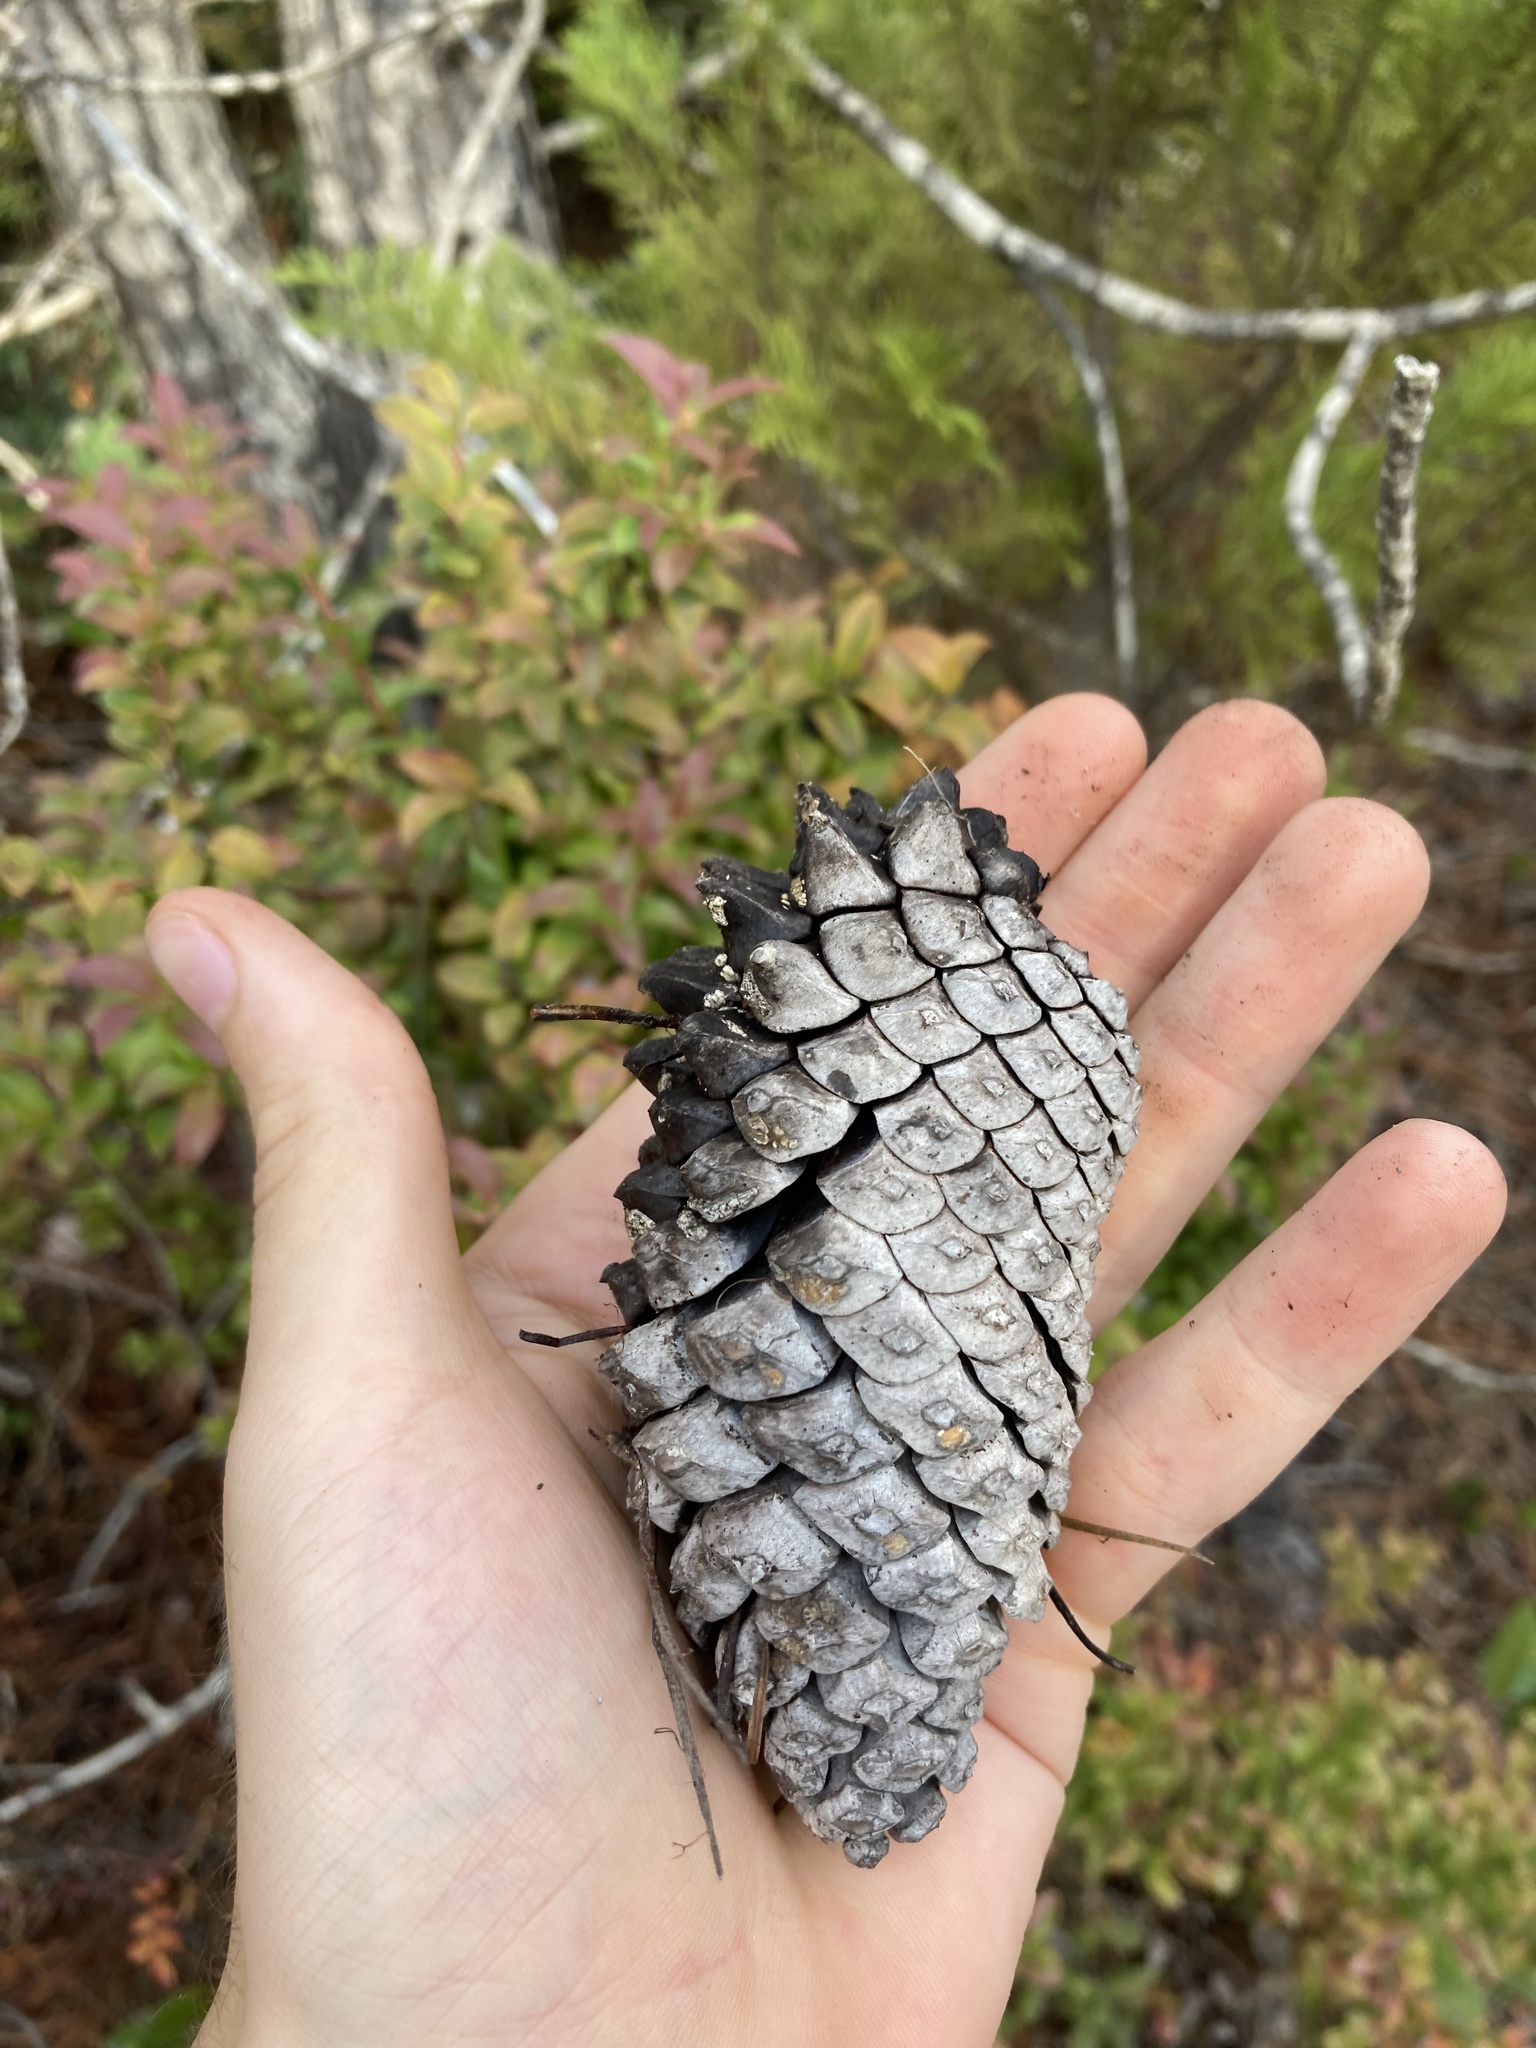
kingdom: Plantae
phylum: Tracheophyta
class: Pinopsida
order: Pinales
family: Pinaceae
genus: Pinus
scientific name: Pinus attenuata
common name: Knobcone pine
